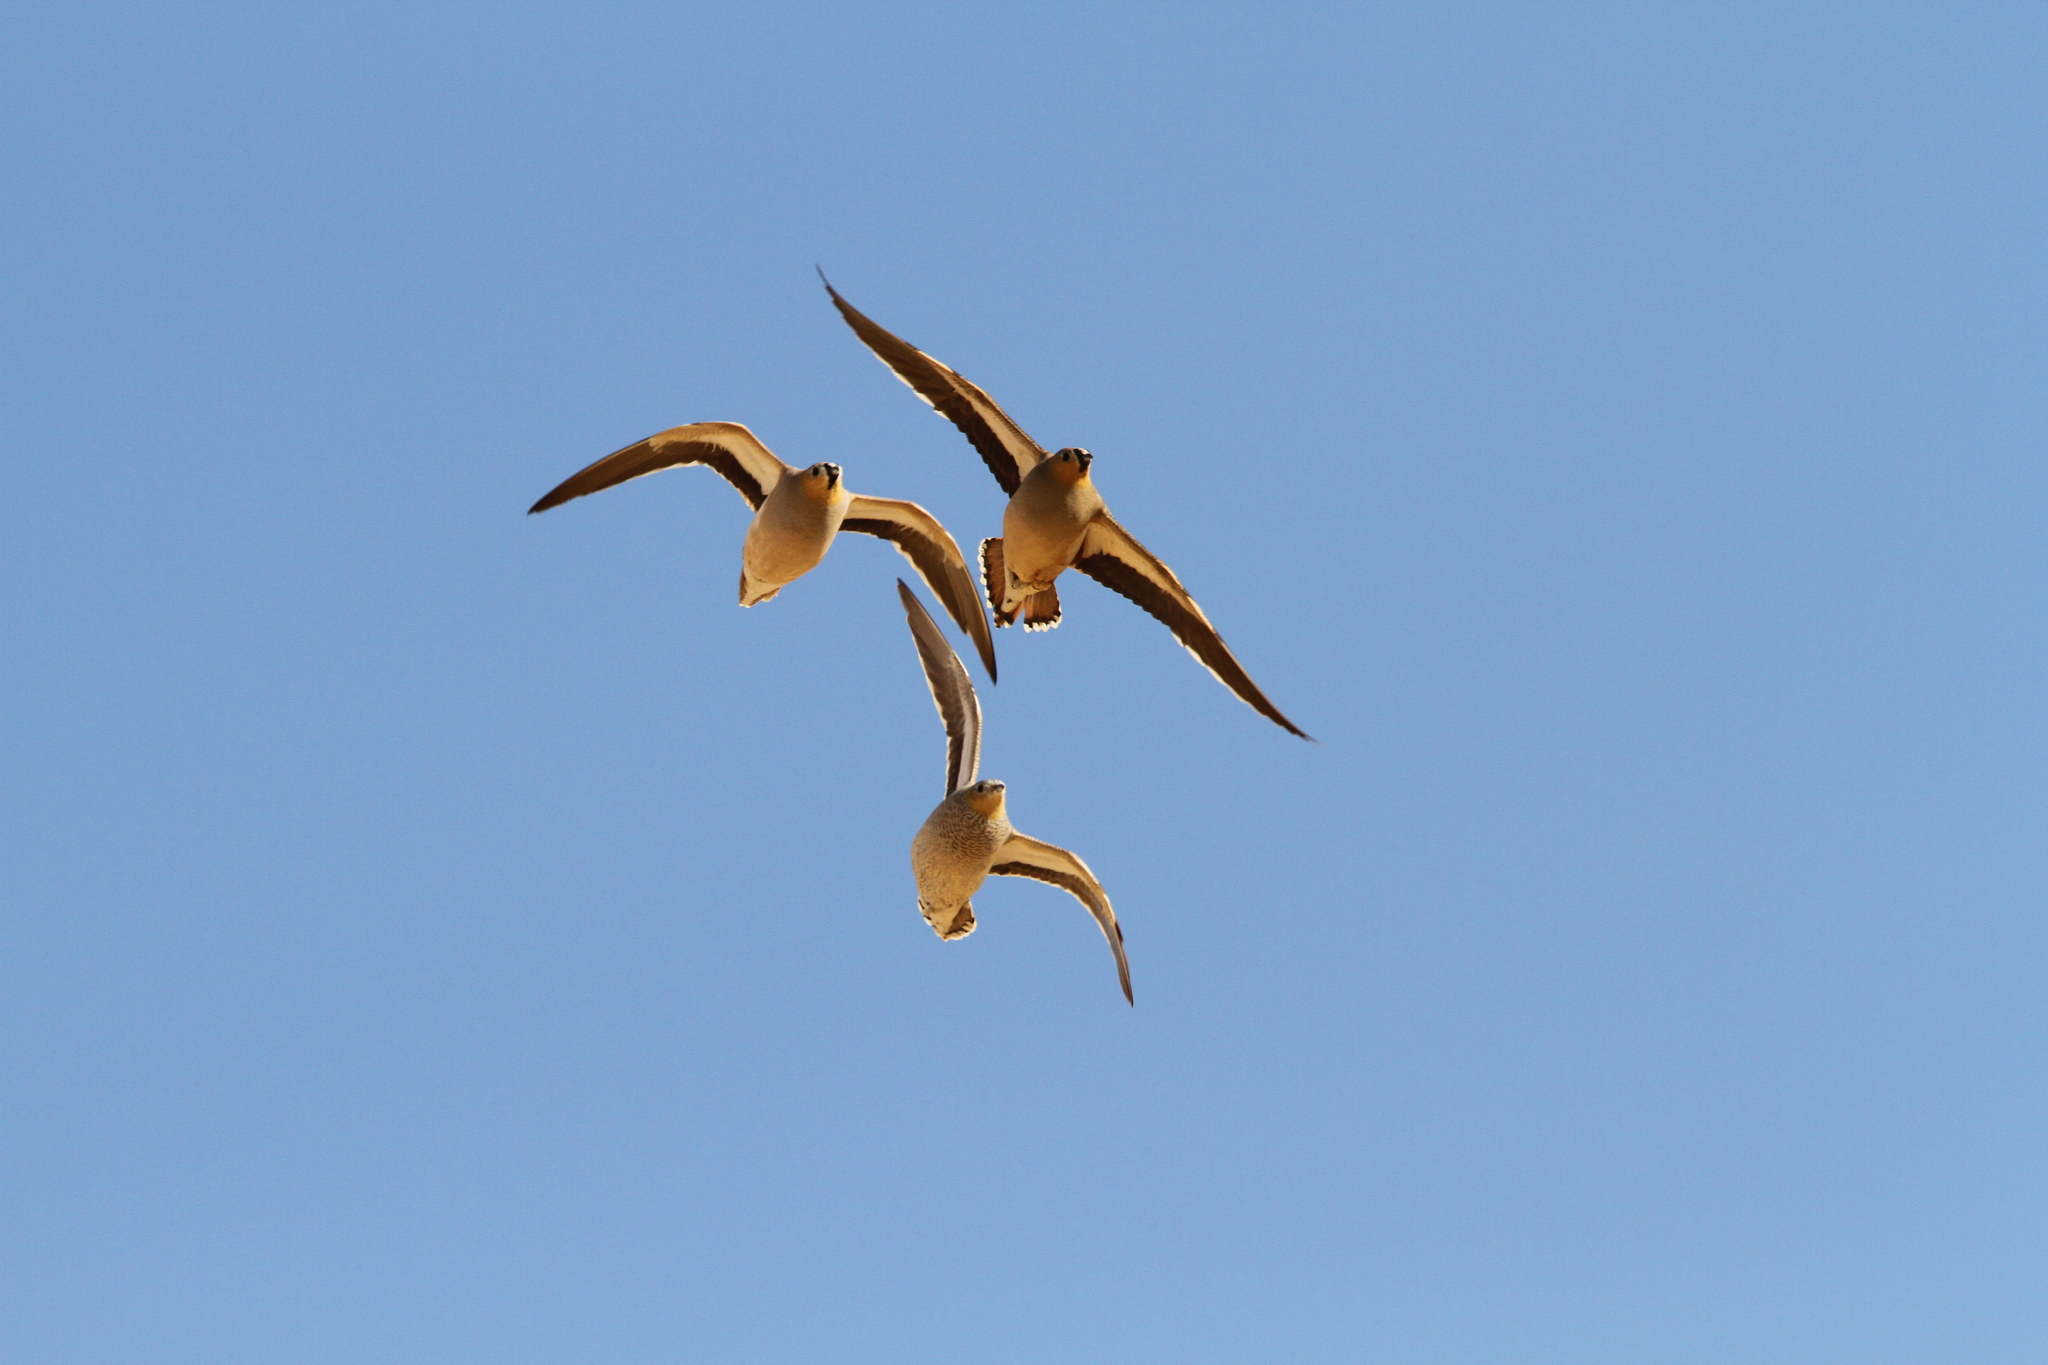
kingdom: Animalia
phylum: Chordata
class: Aves
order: Pteroclidiformes
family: Pteroclididae
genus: Pterocles
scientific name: Pterocles coronatus
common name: Crowned sandgrouse
